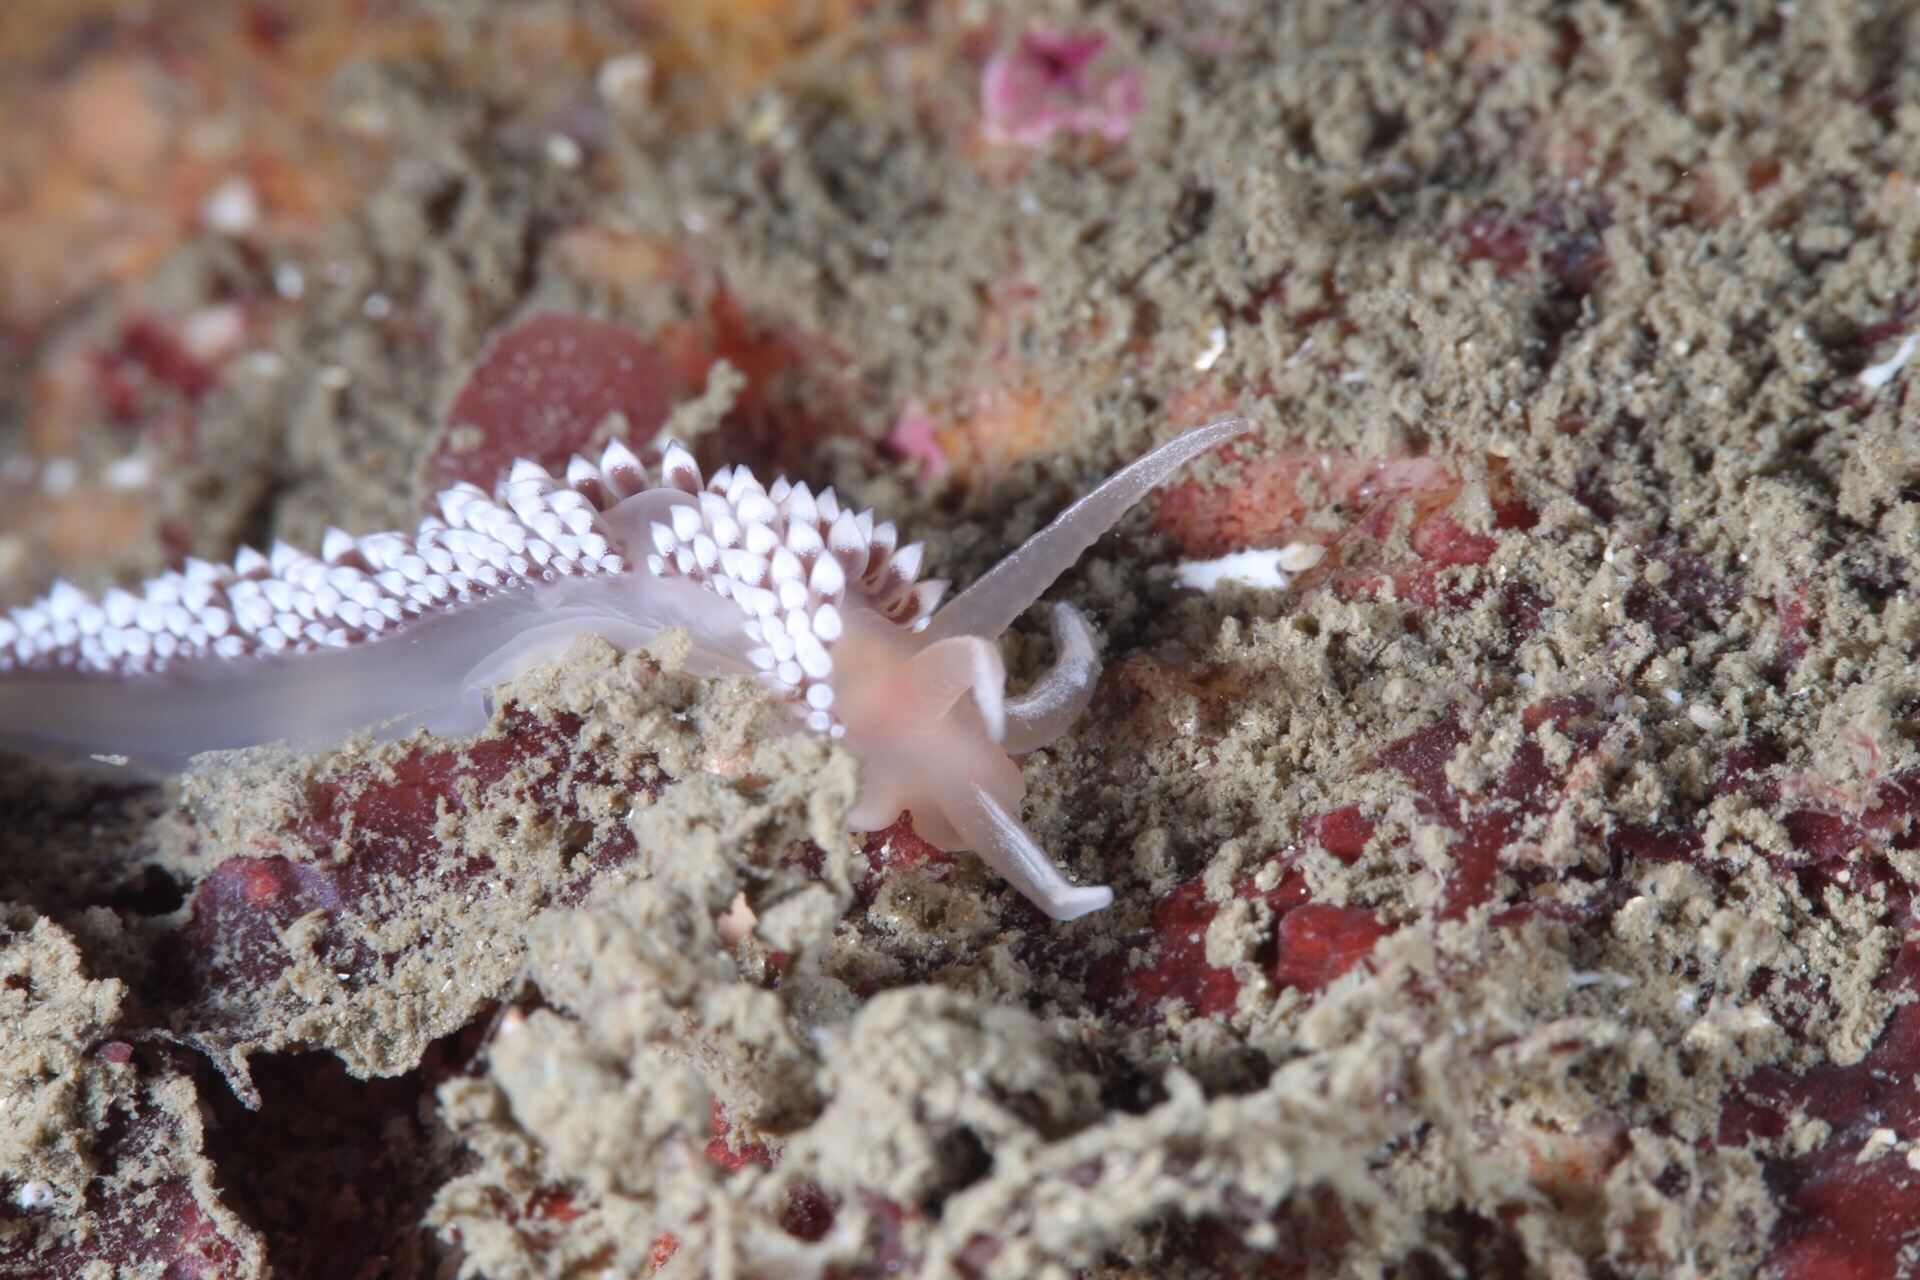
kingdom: Animalia
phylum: Mollusca
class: Gastropoda
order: Nudibranchia
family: Coryphellidae
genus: Coryphella
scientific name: Coryphella verrucosa
